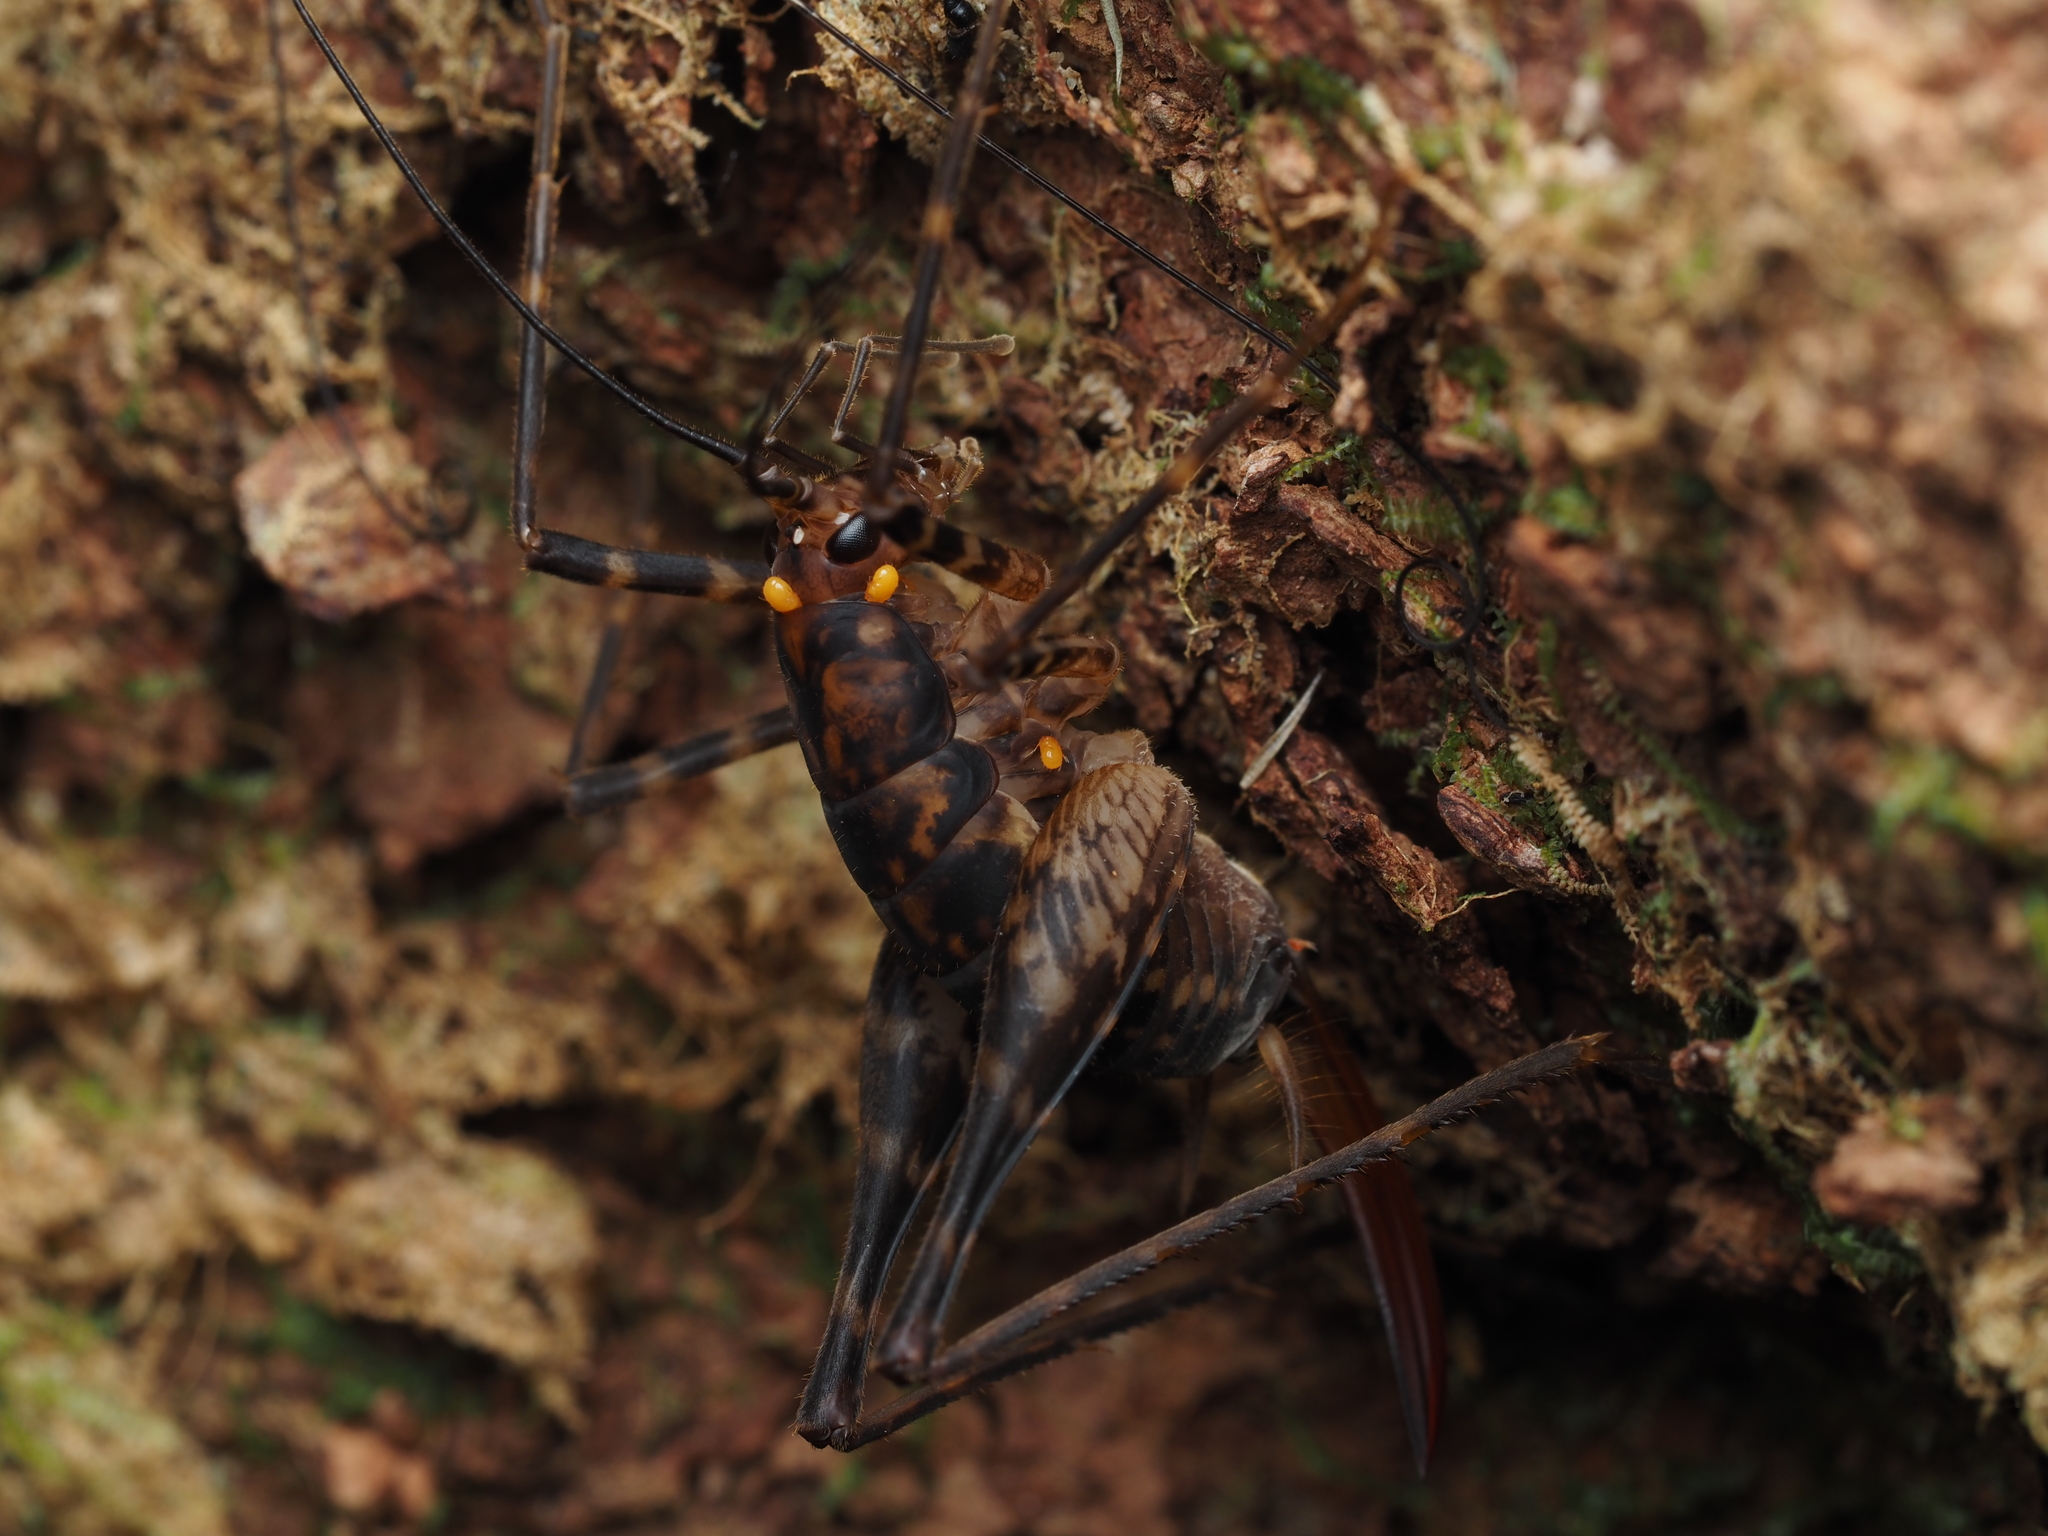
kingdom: Animalia
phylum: Arthropoda
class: Insecta
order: Orthoptera
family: Rhaphidophoridae
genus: Miotopus
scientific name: Miotopus richardsae
